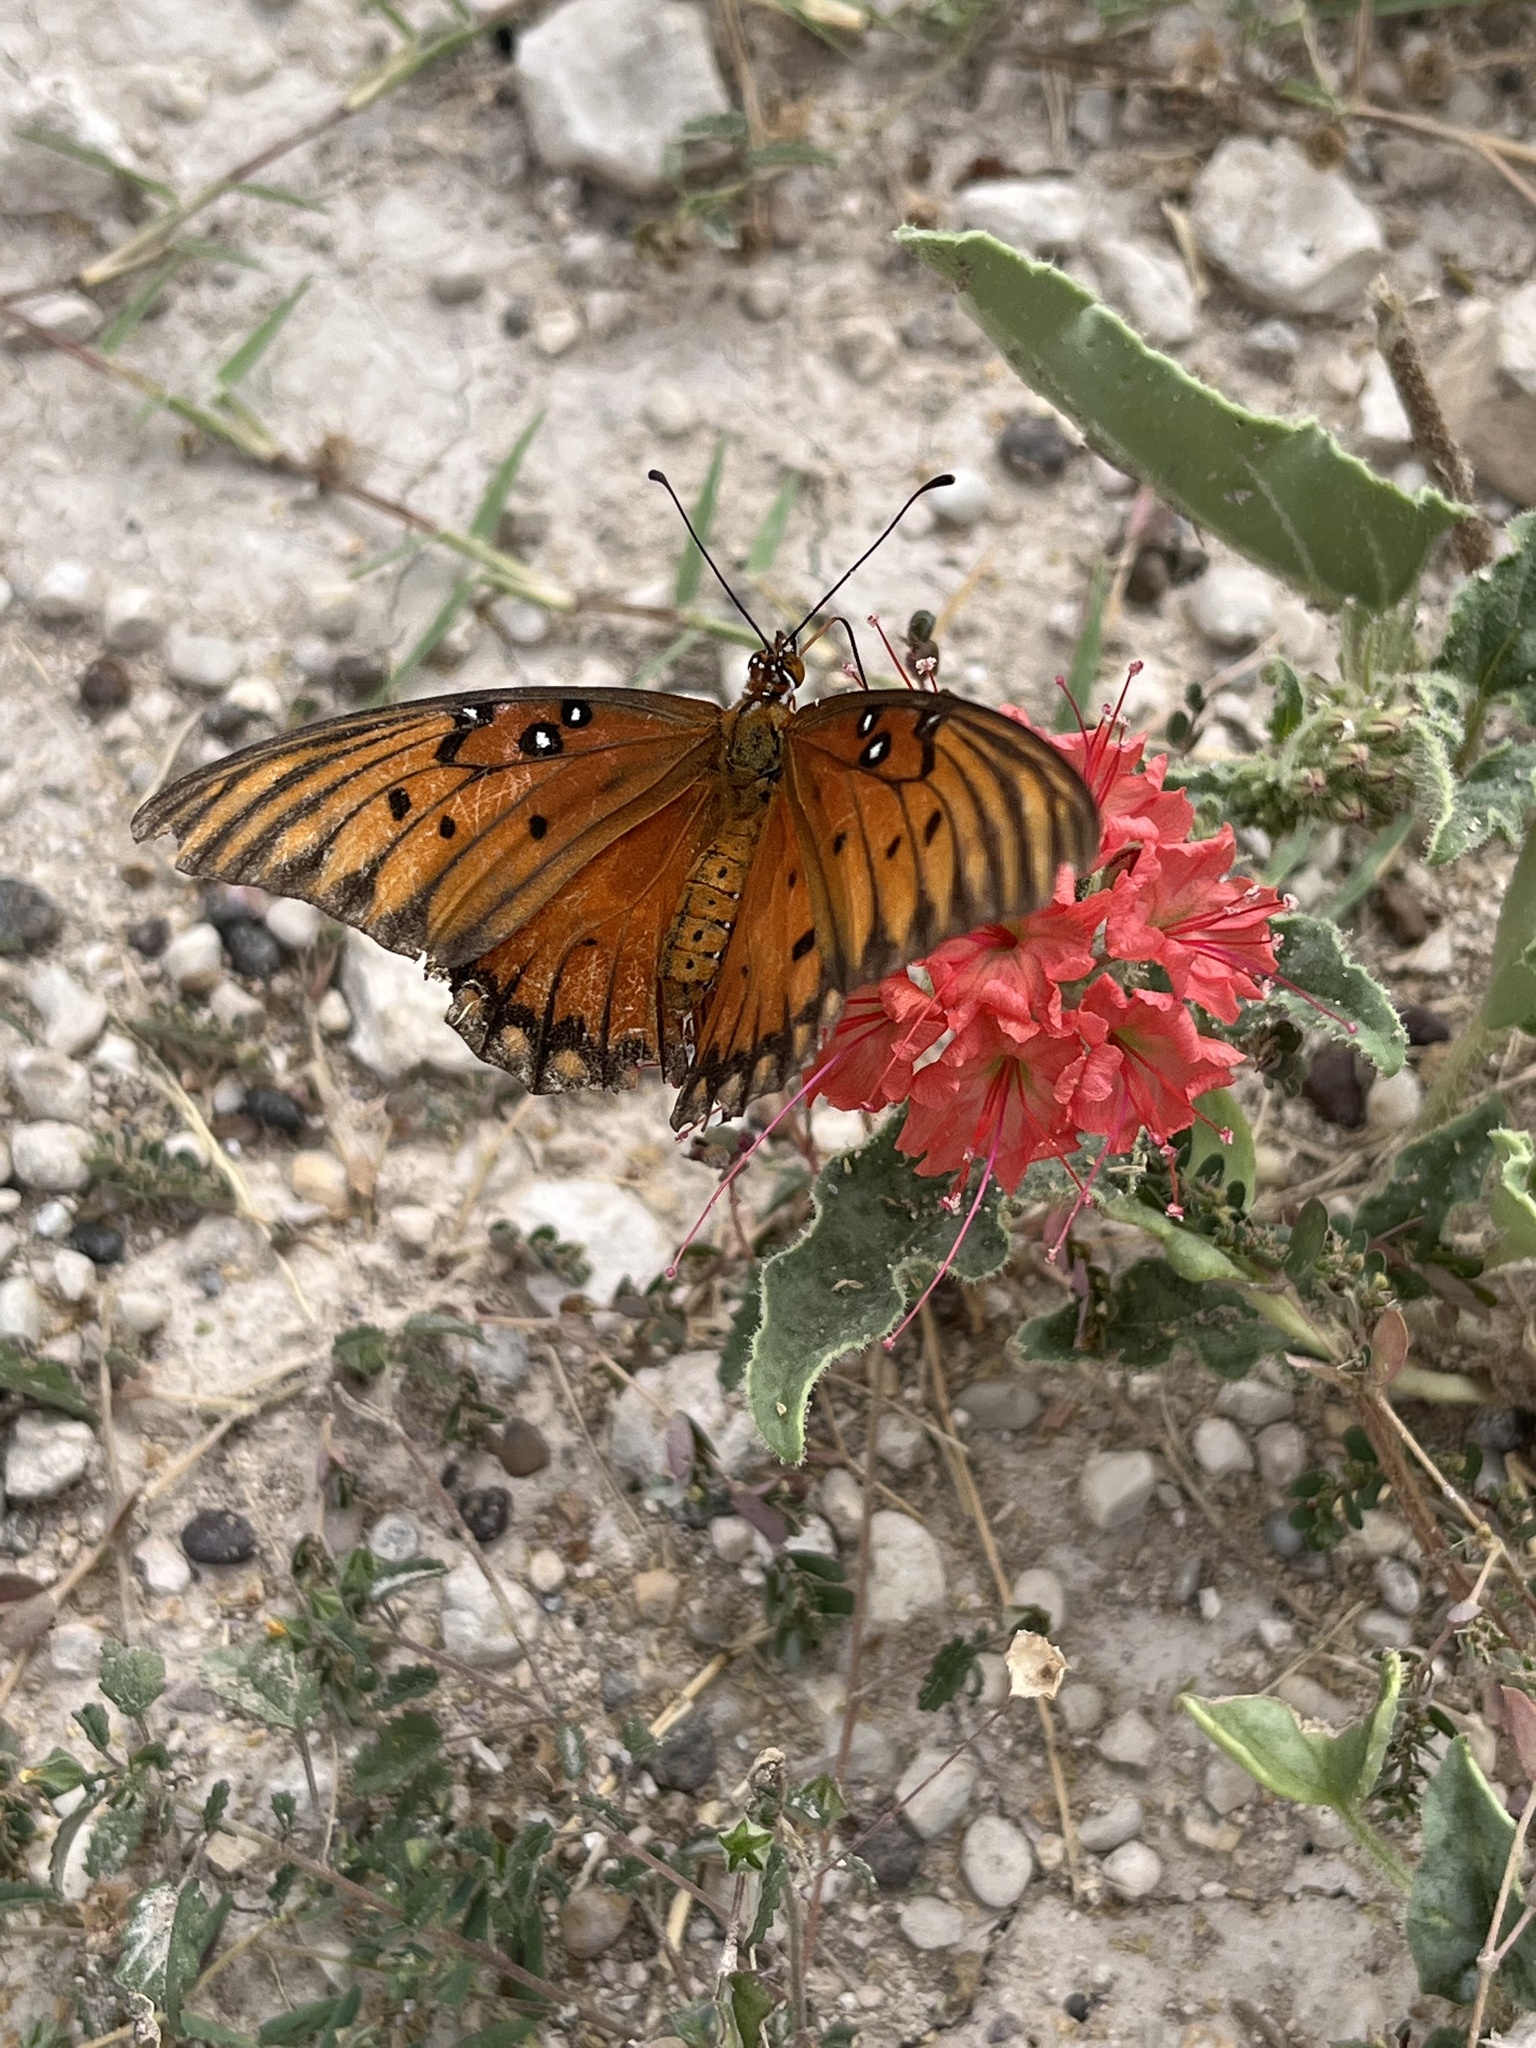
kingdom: Animalia
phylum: Arthropoda
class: Insecta
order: Lepidoptera
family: Nymphalidae
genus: Dione
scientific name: Dione vanillae
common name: Gulf fritillary
